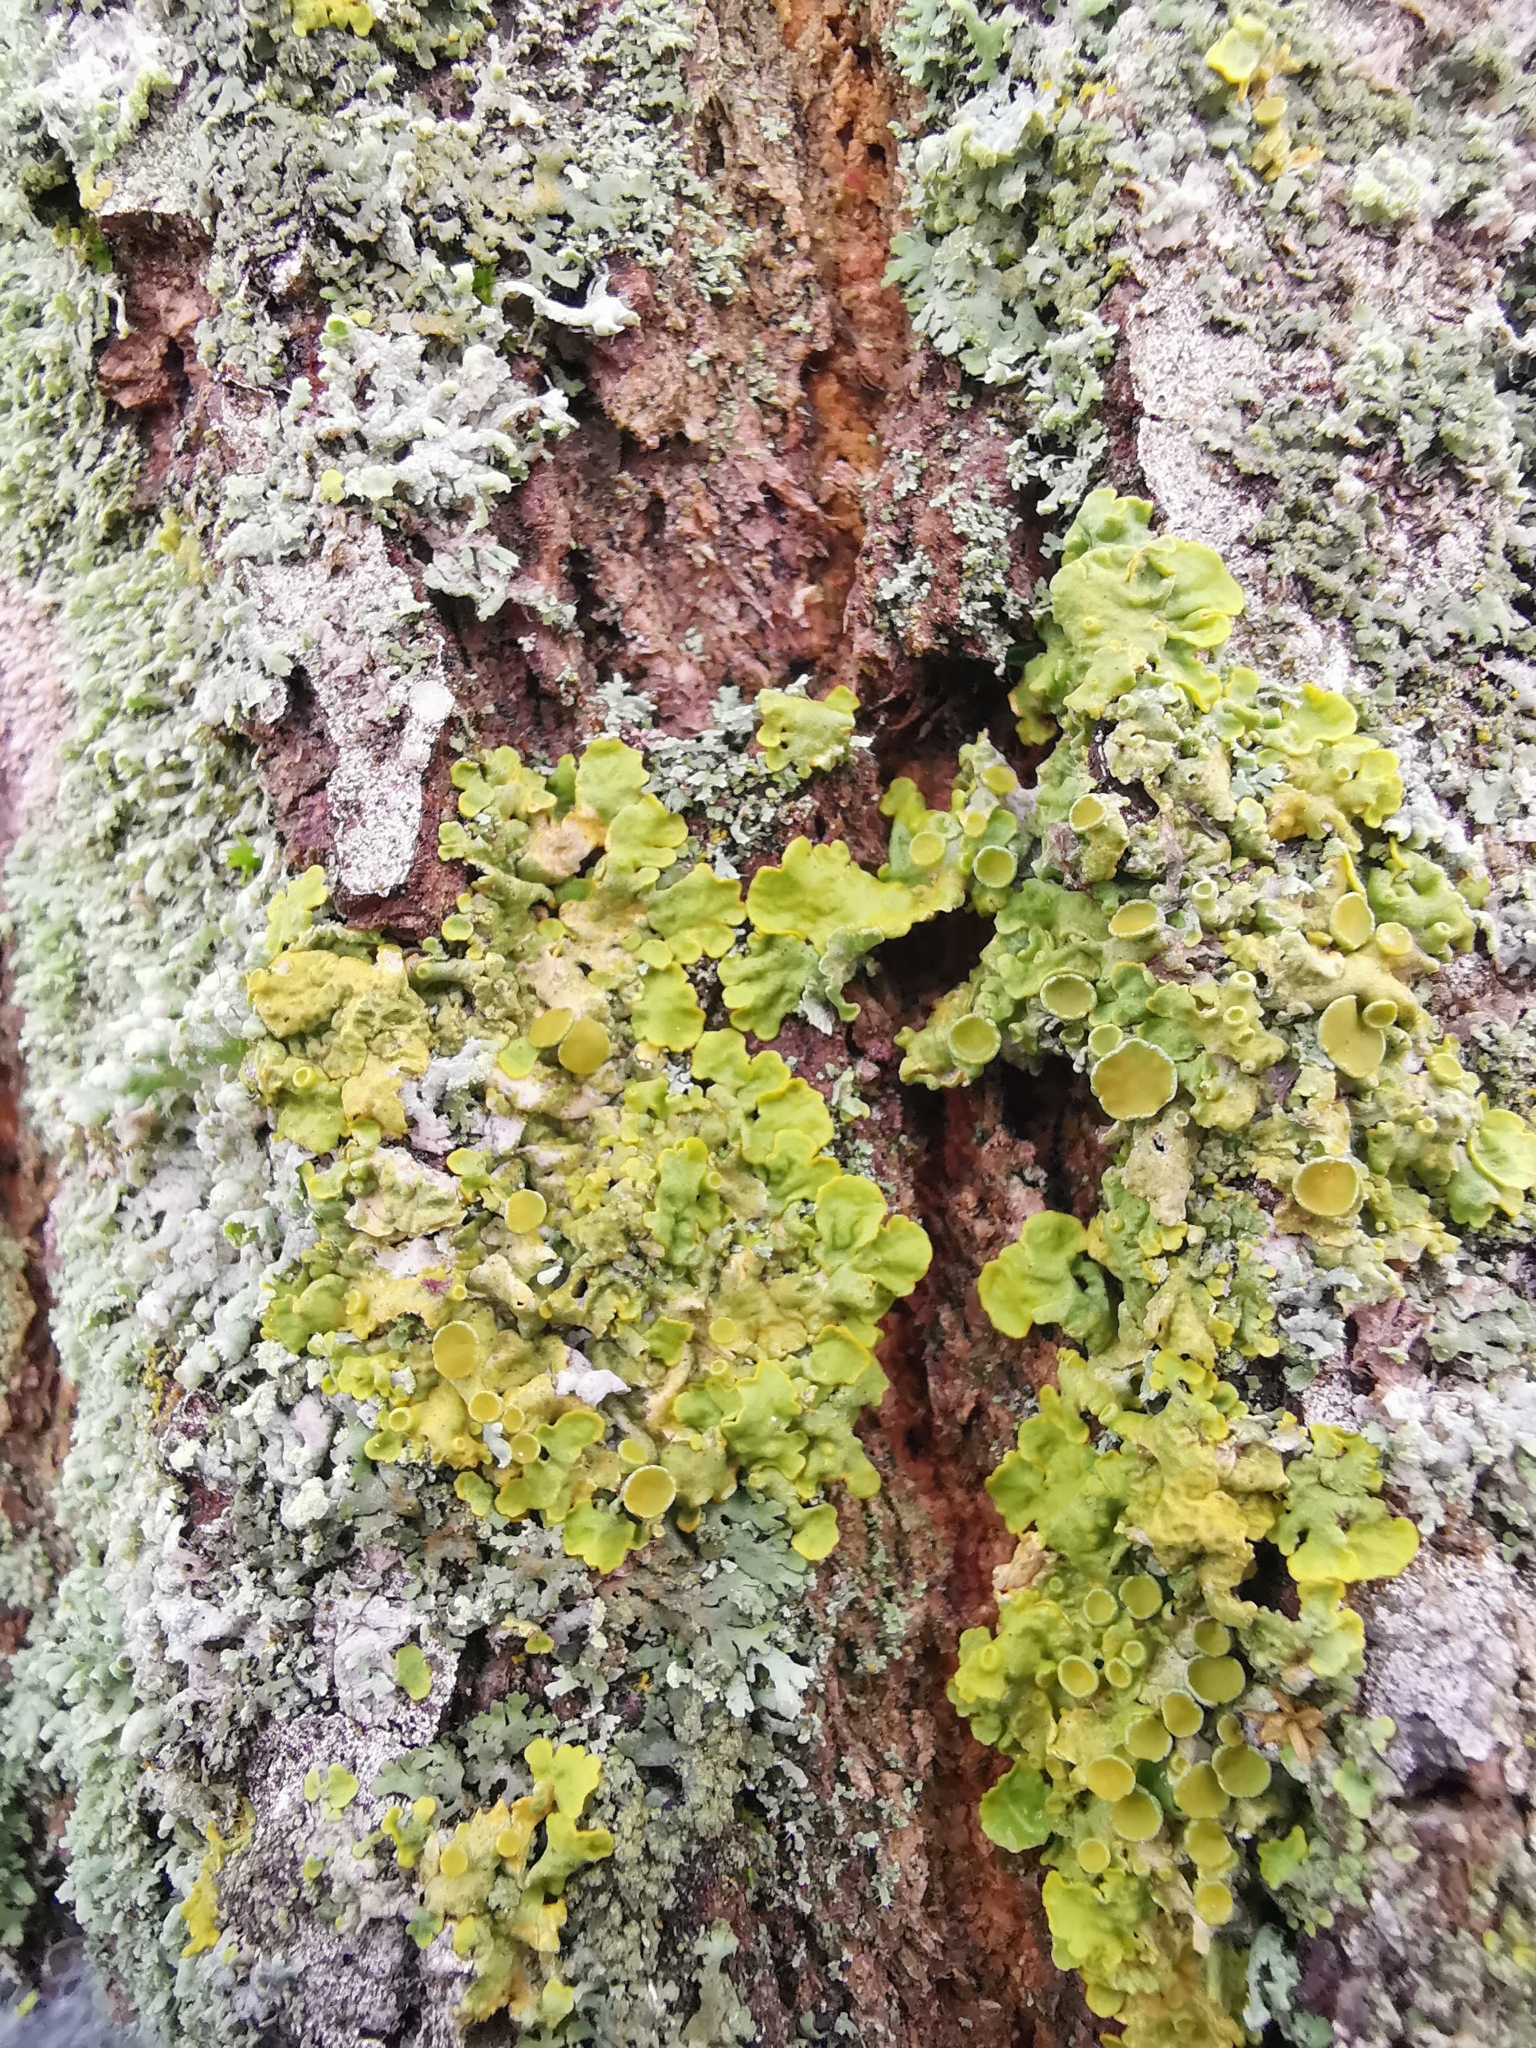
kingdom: Fungi
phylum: Ascomycota
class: Lecanoromycetes
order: Teloschistales
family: Teloschistaceae
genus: Xanthoria
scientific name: Xanthoria parietina
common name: Common orange lichen
